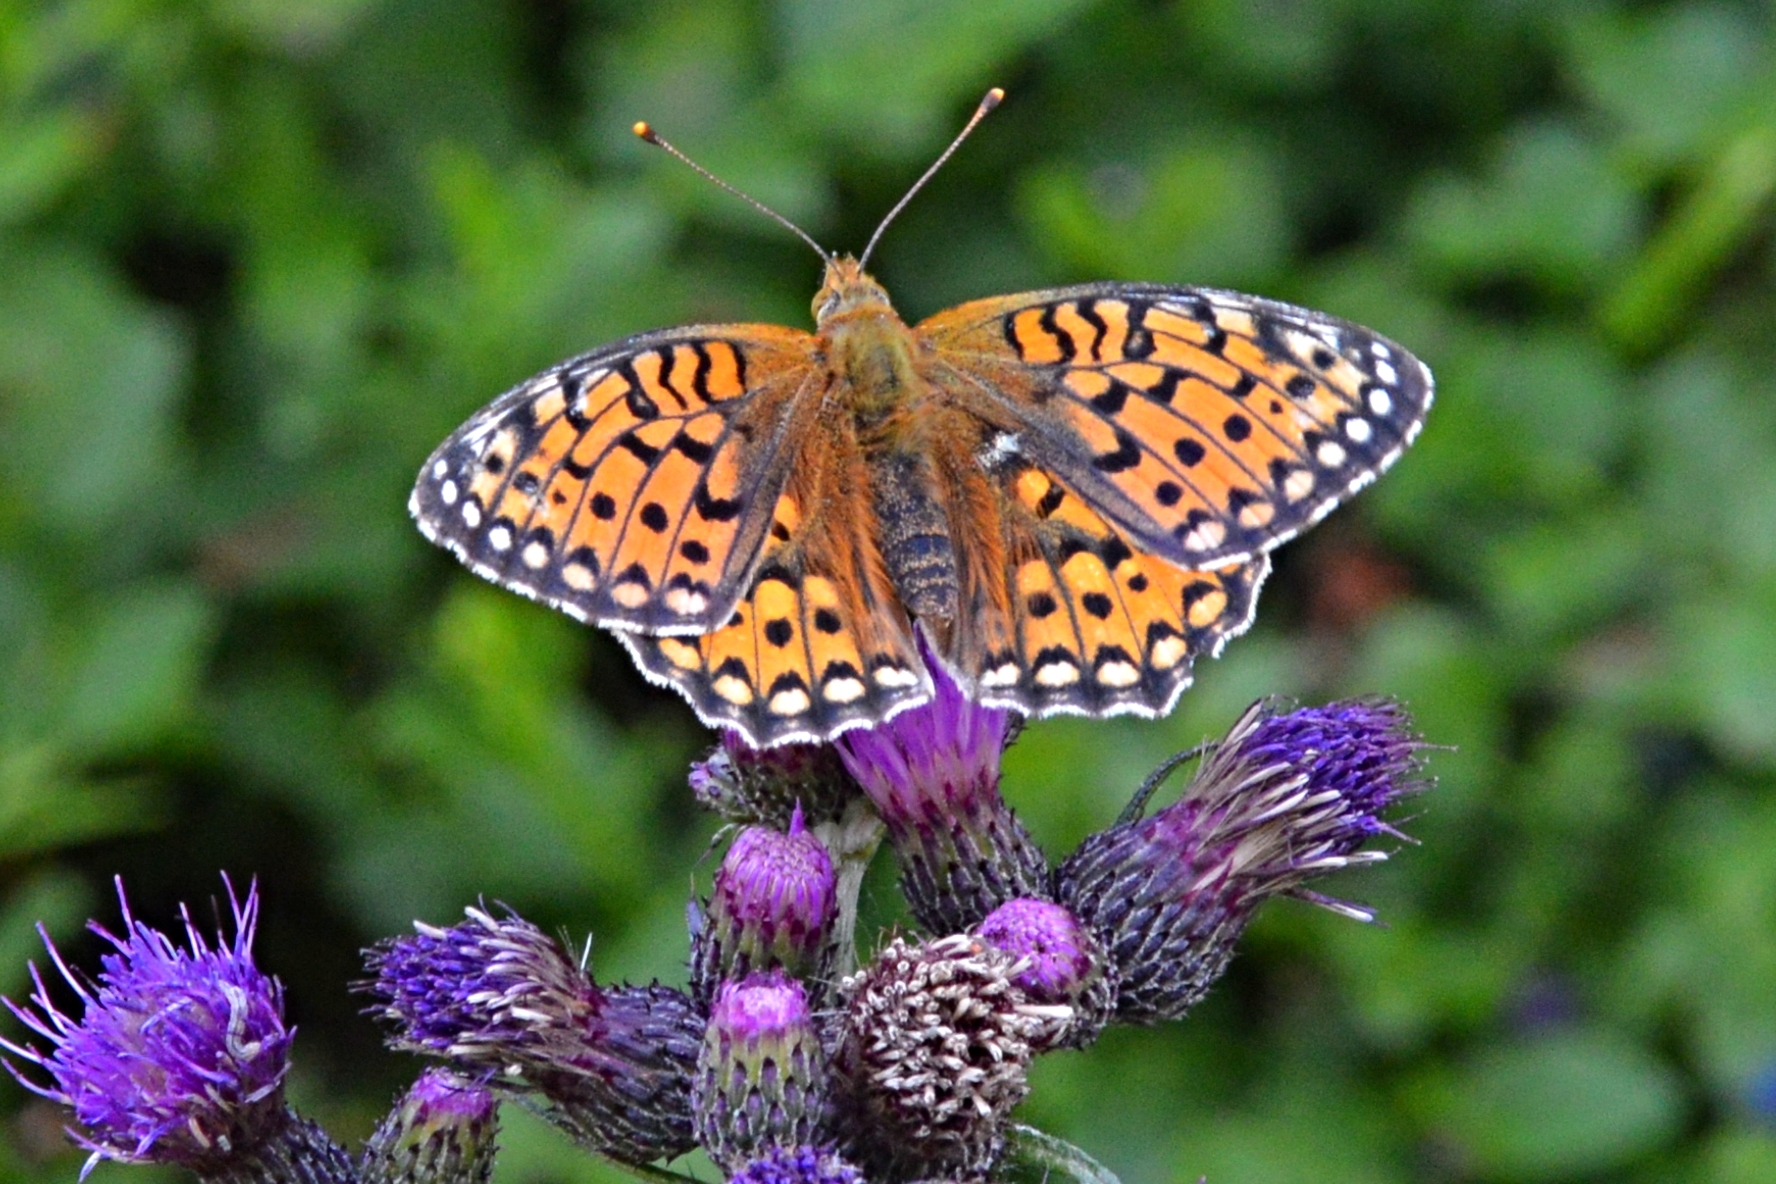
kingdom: Animalia
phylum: Arthropoda
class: Insecta
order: Lepidoptera
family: Nymphalidae
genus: Speyeria
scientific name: Speyeria aglaja
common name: Dark green fritillary
